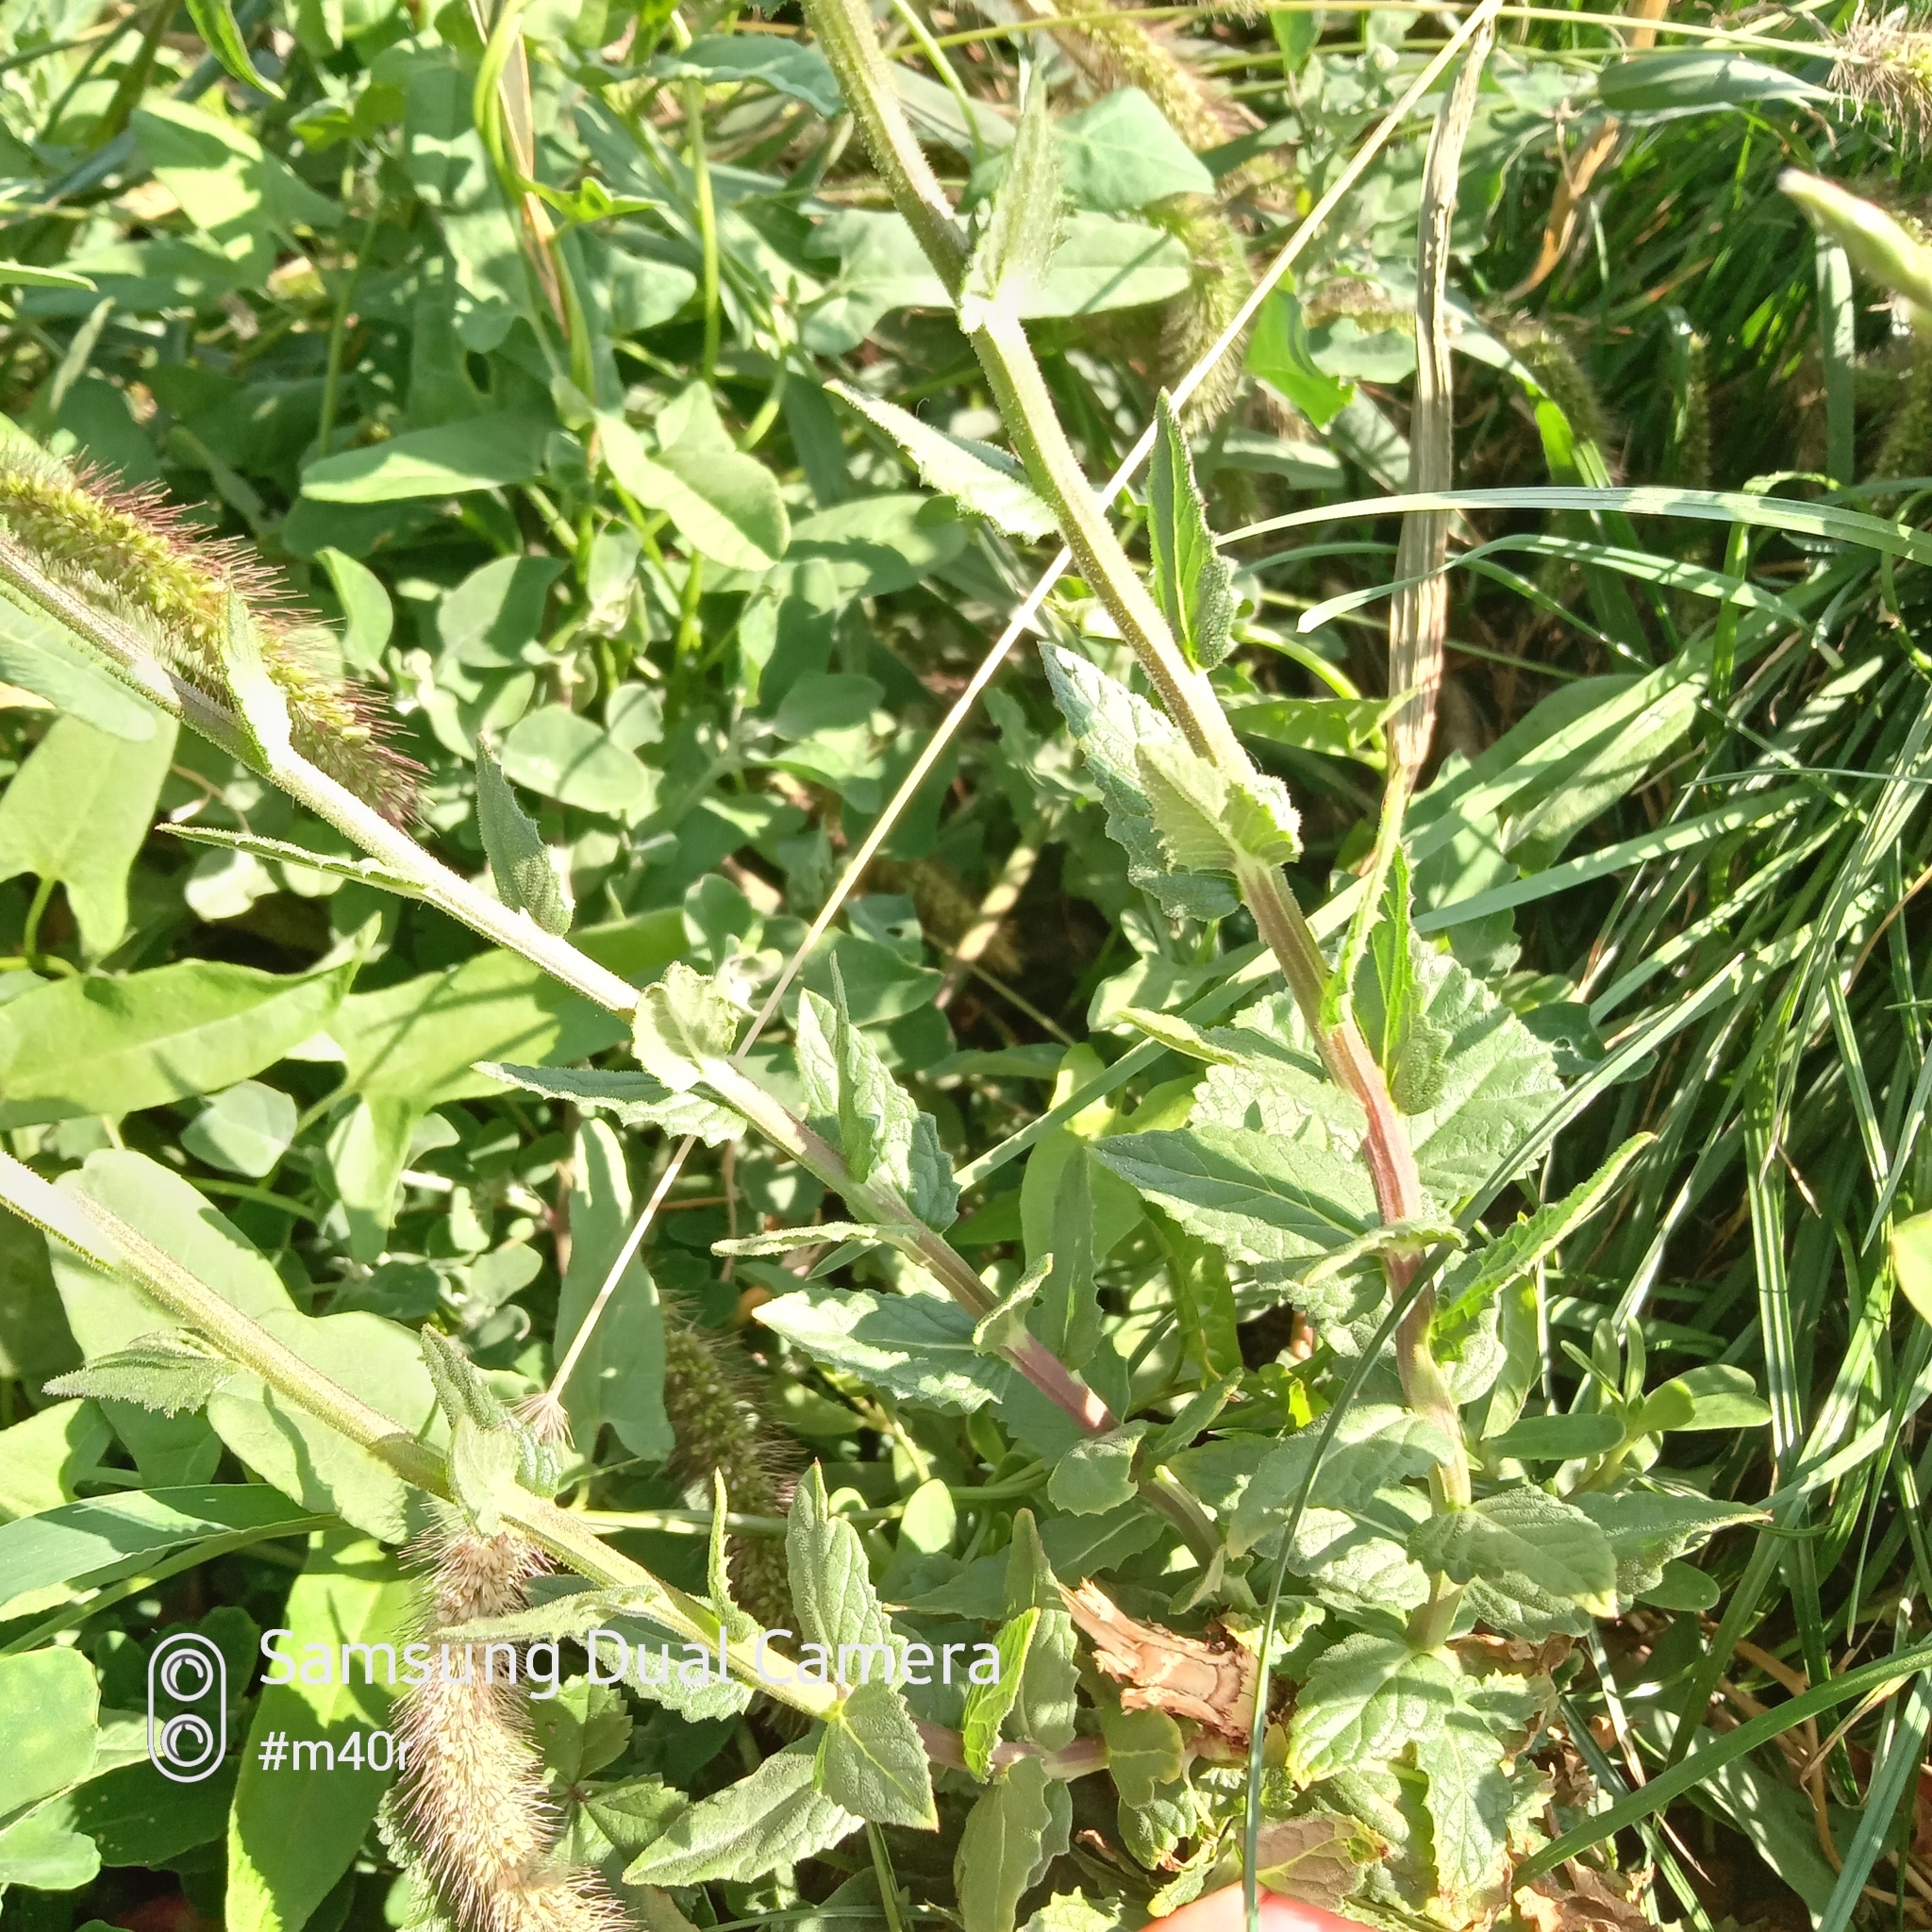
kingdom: Plantae
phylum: Tracheophyta
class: Magnoliopsida
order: Lamiales
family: Scrophulariaceae
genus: Verbascum
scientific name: Verbascum blattaria
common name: Moth mullein
